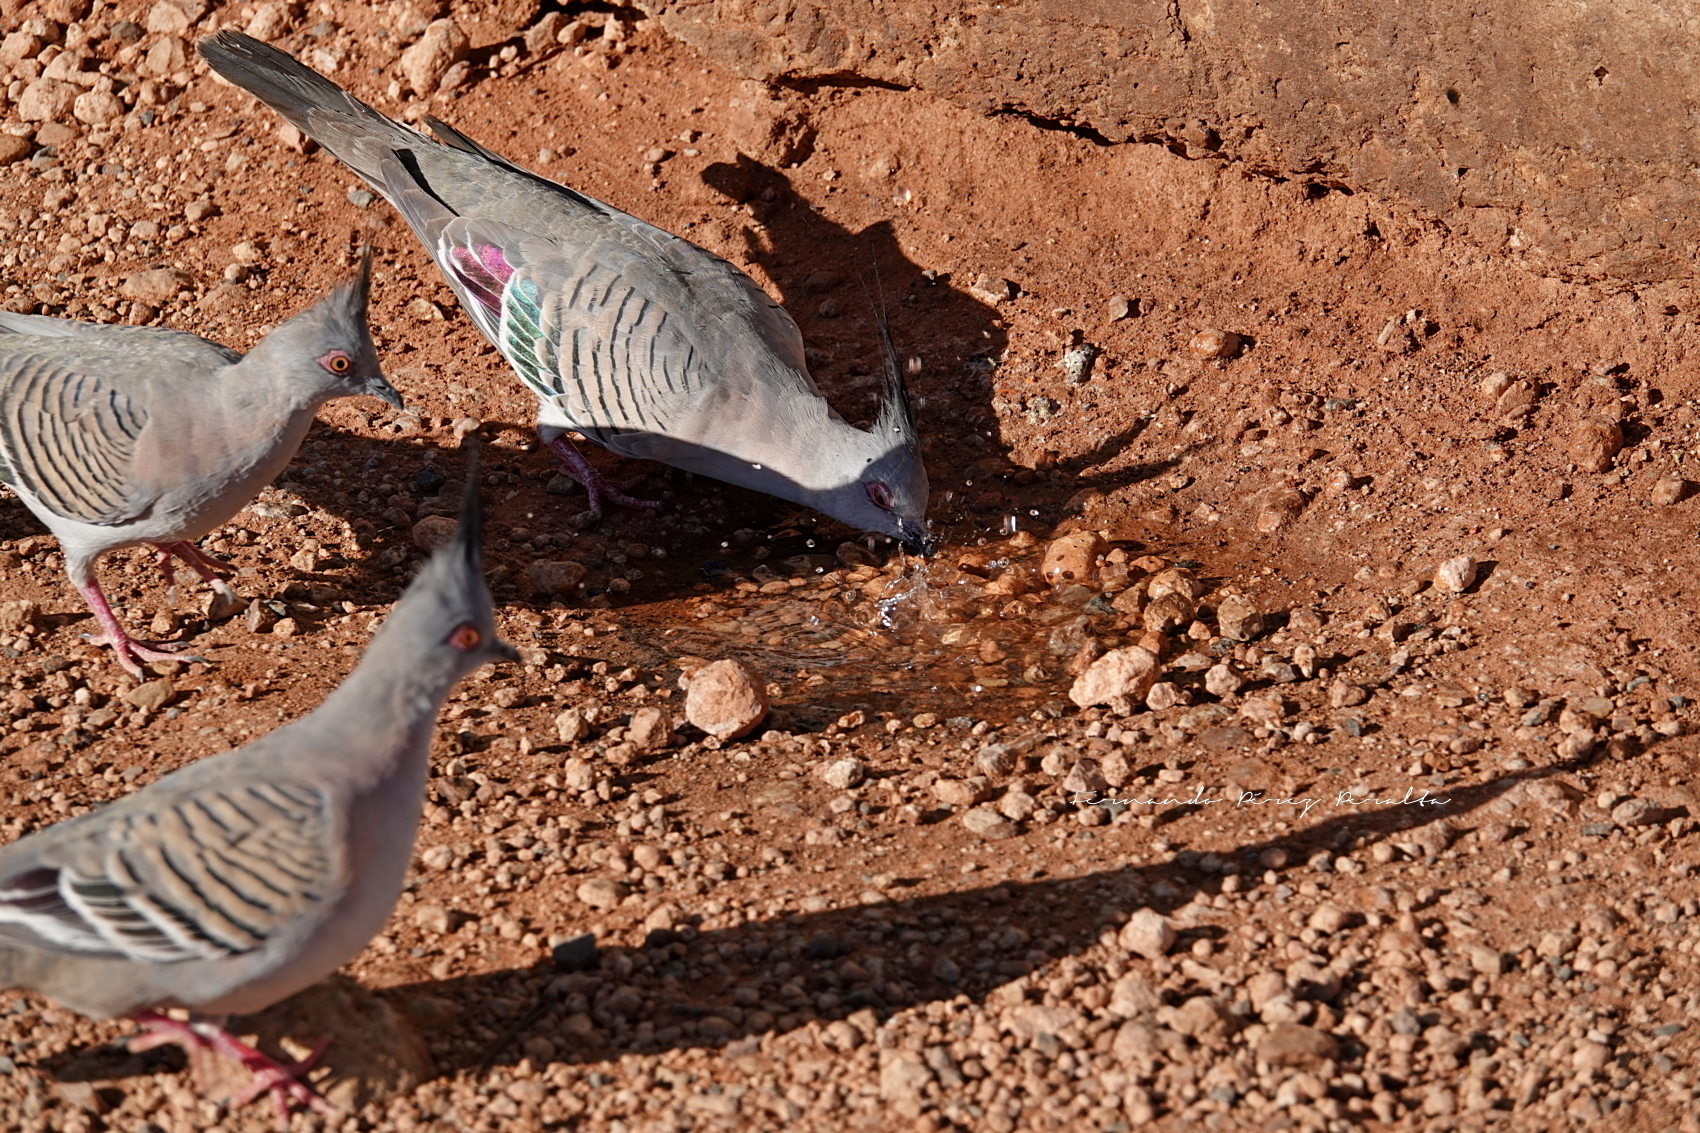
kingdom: Animalia
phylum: Chordata
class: Aves
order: Columbiformes
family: Columbidae
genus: Ocyphaps
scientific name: Ocyphaps lophotes
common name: Crested pigeon
